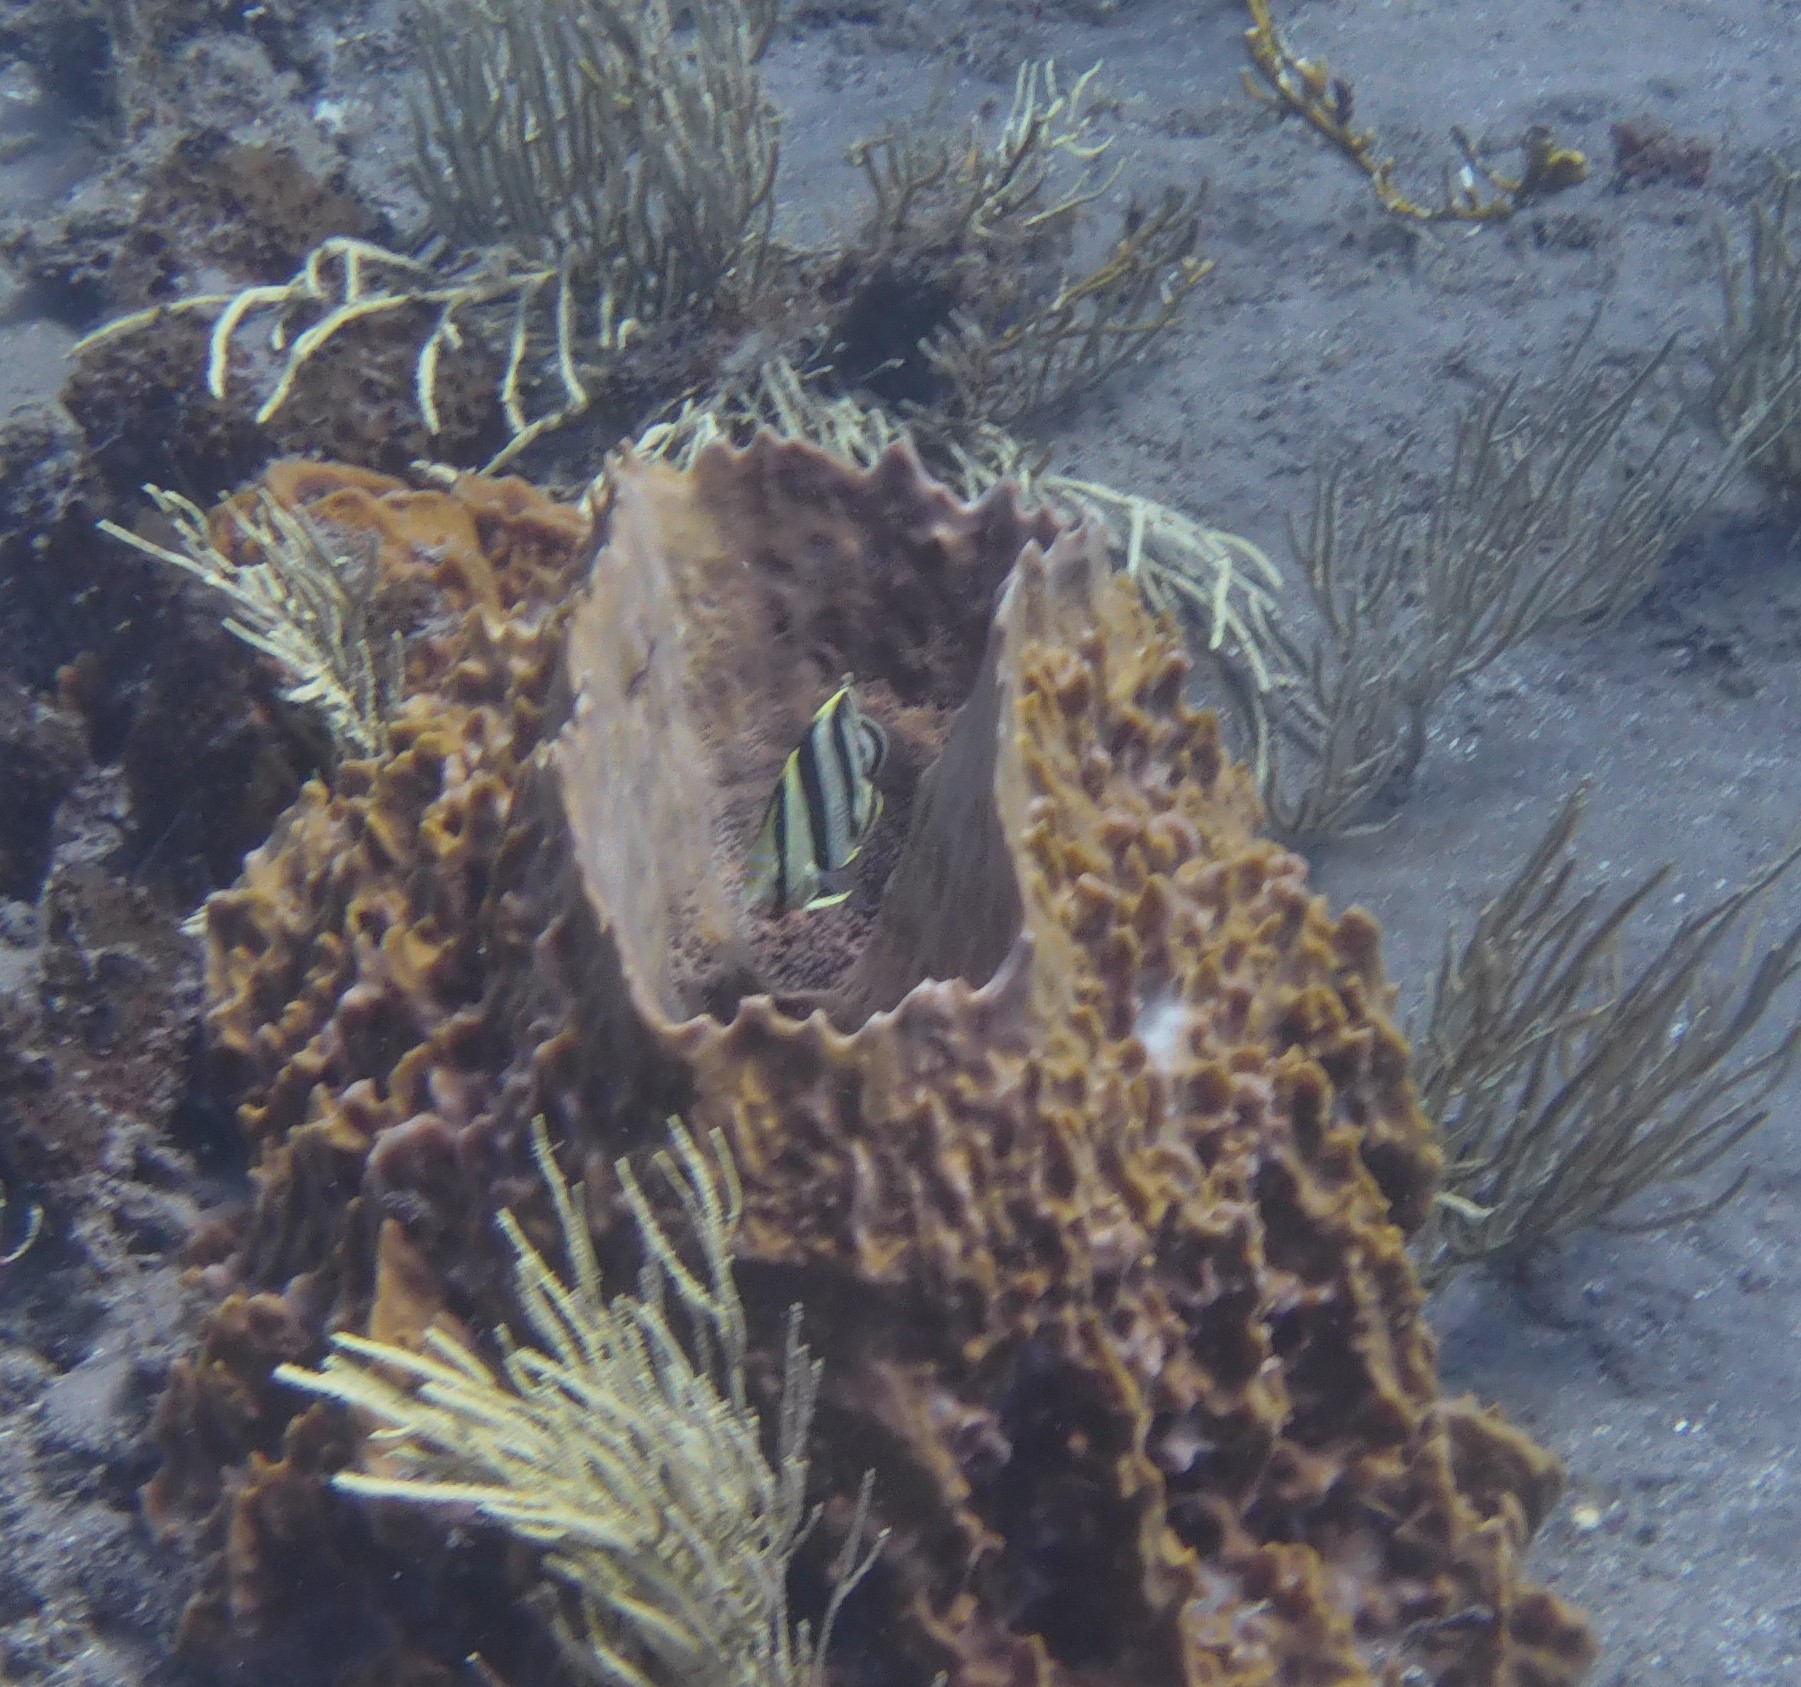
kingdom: Animalia
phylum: Chordata
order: Perciformes
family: Chaetodontidae
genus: Chaetodon
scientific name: Chaetodon striatus
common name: Banded butterflyfish
